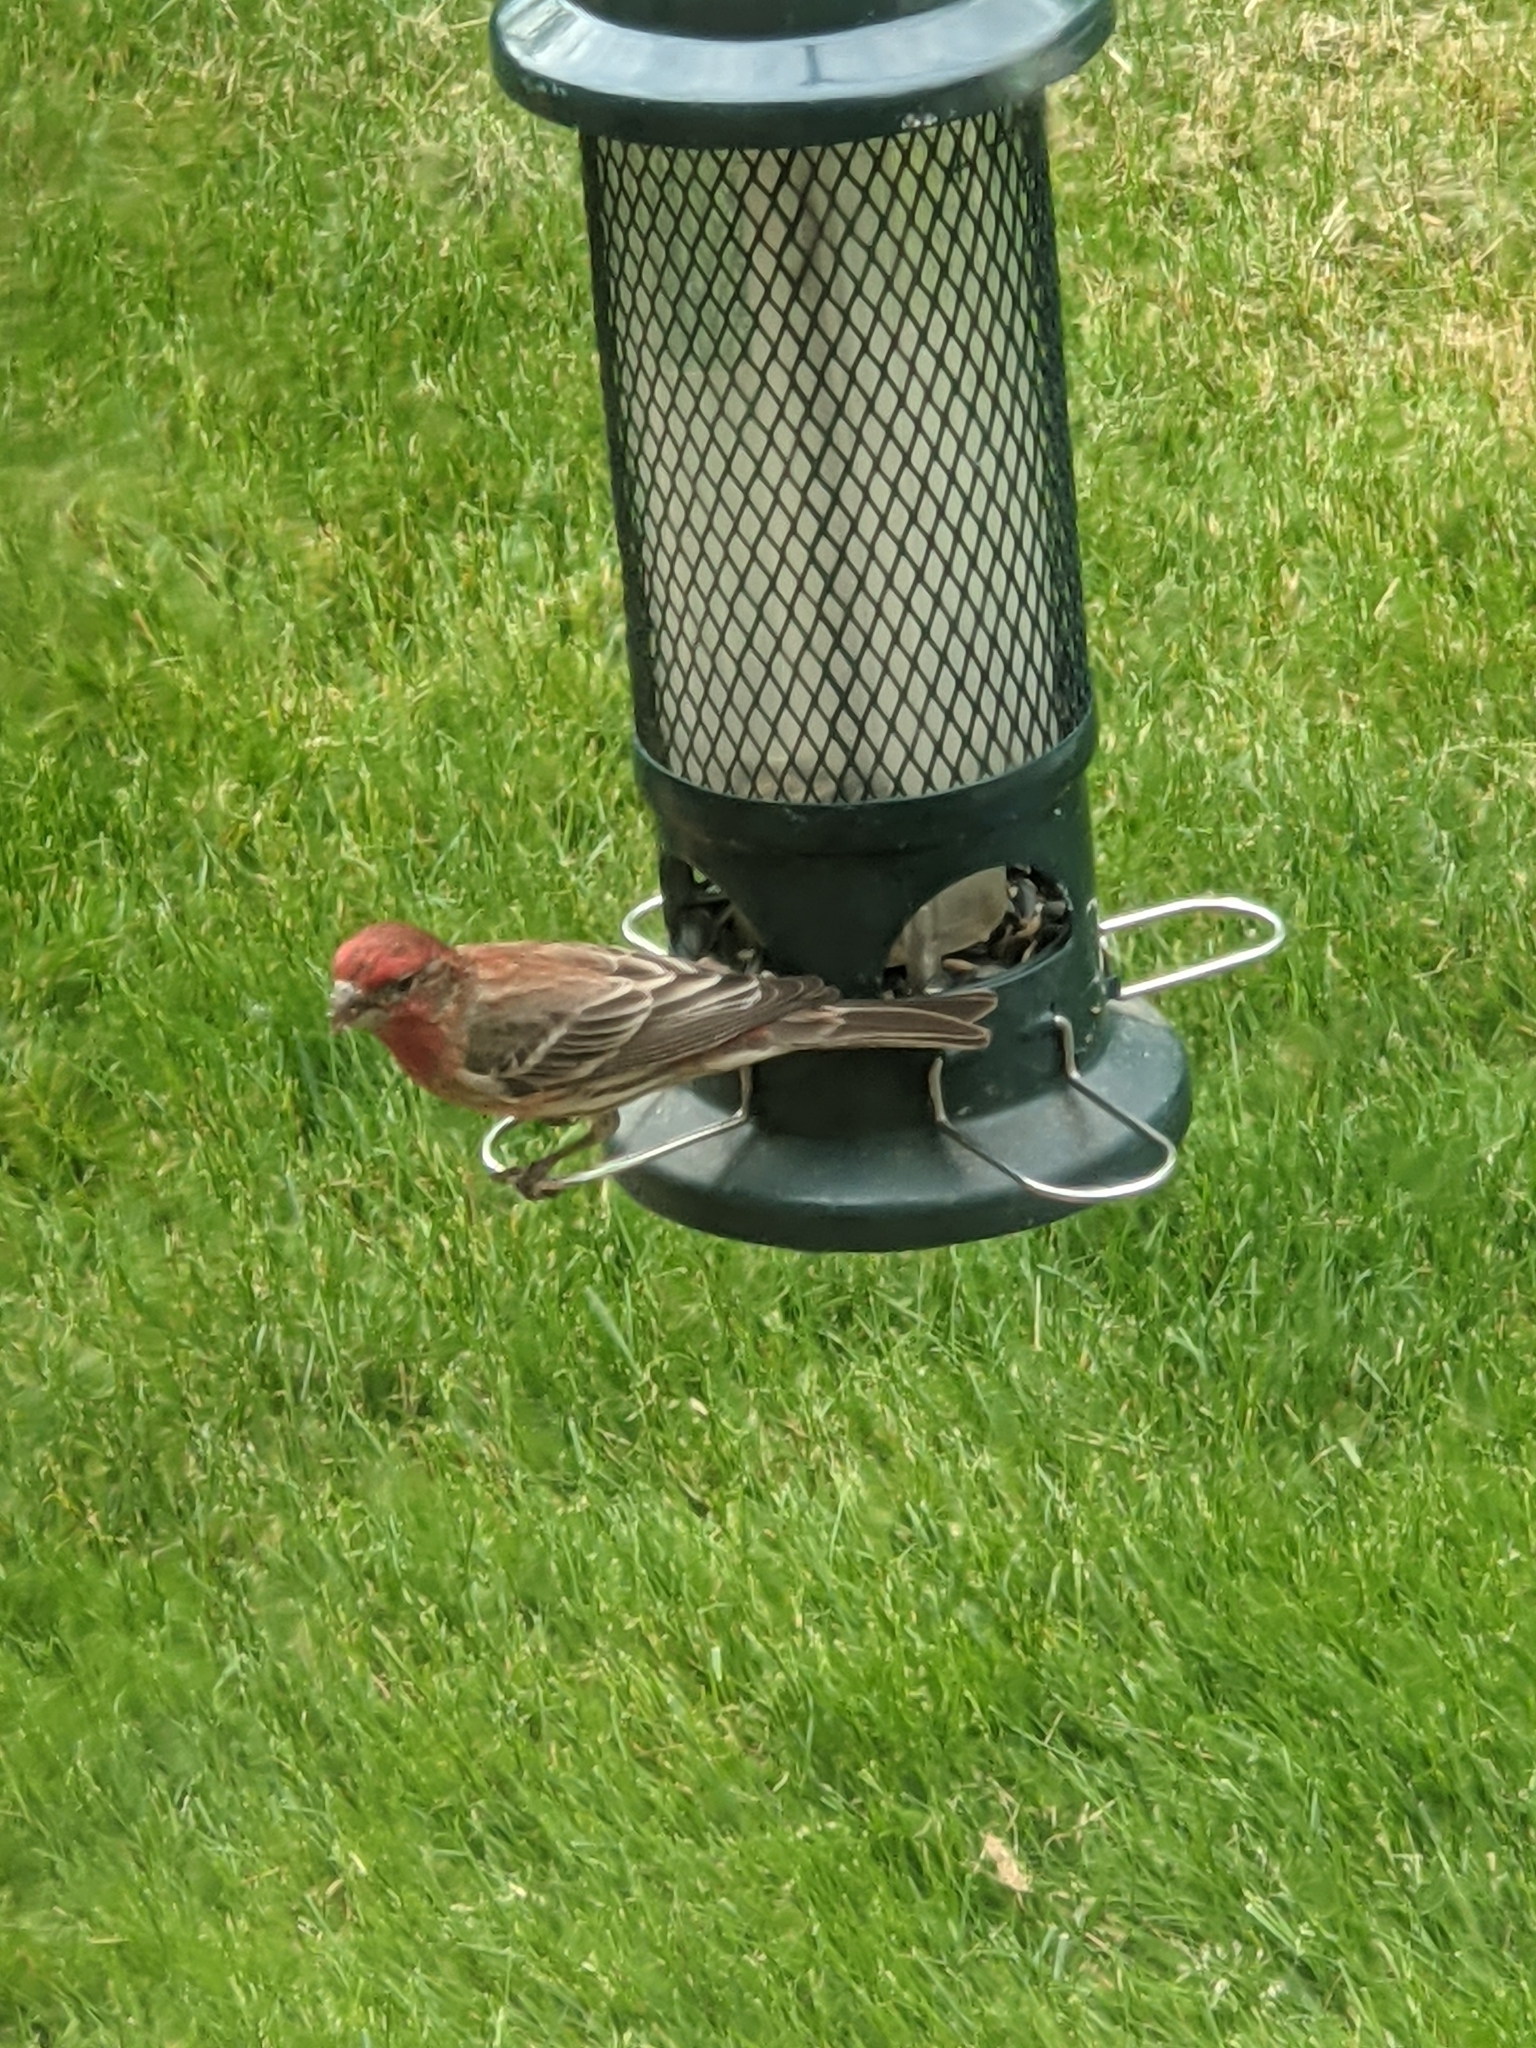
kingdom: Animalia
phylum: Chordata
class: Aves
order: Passeriformes
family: Fringillidae
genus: Haemorhous
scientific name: Haemorhous mexicanus
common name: House finch
